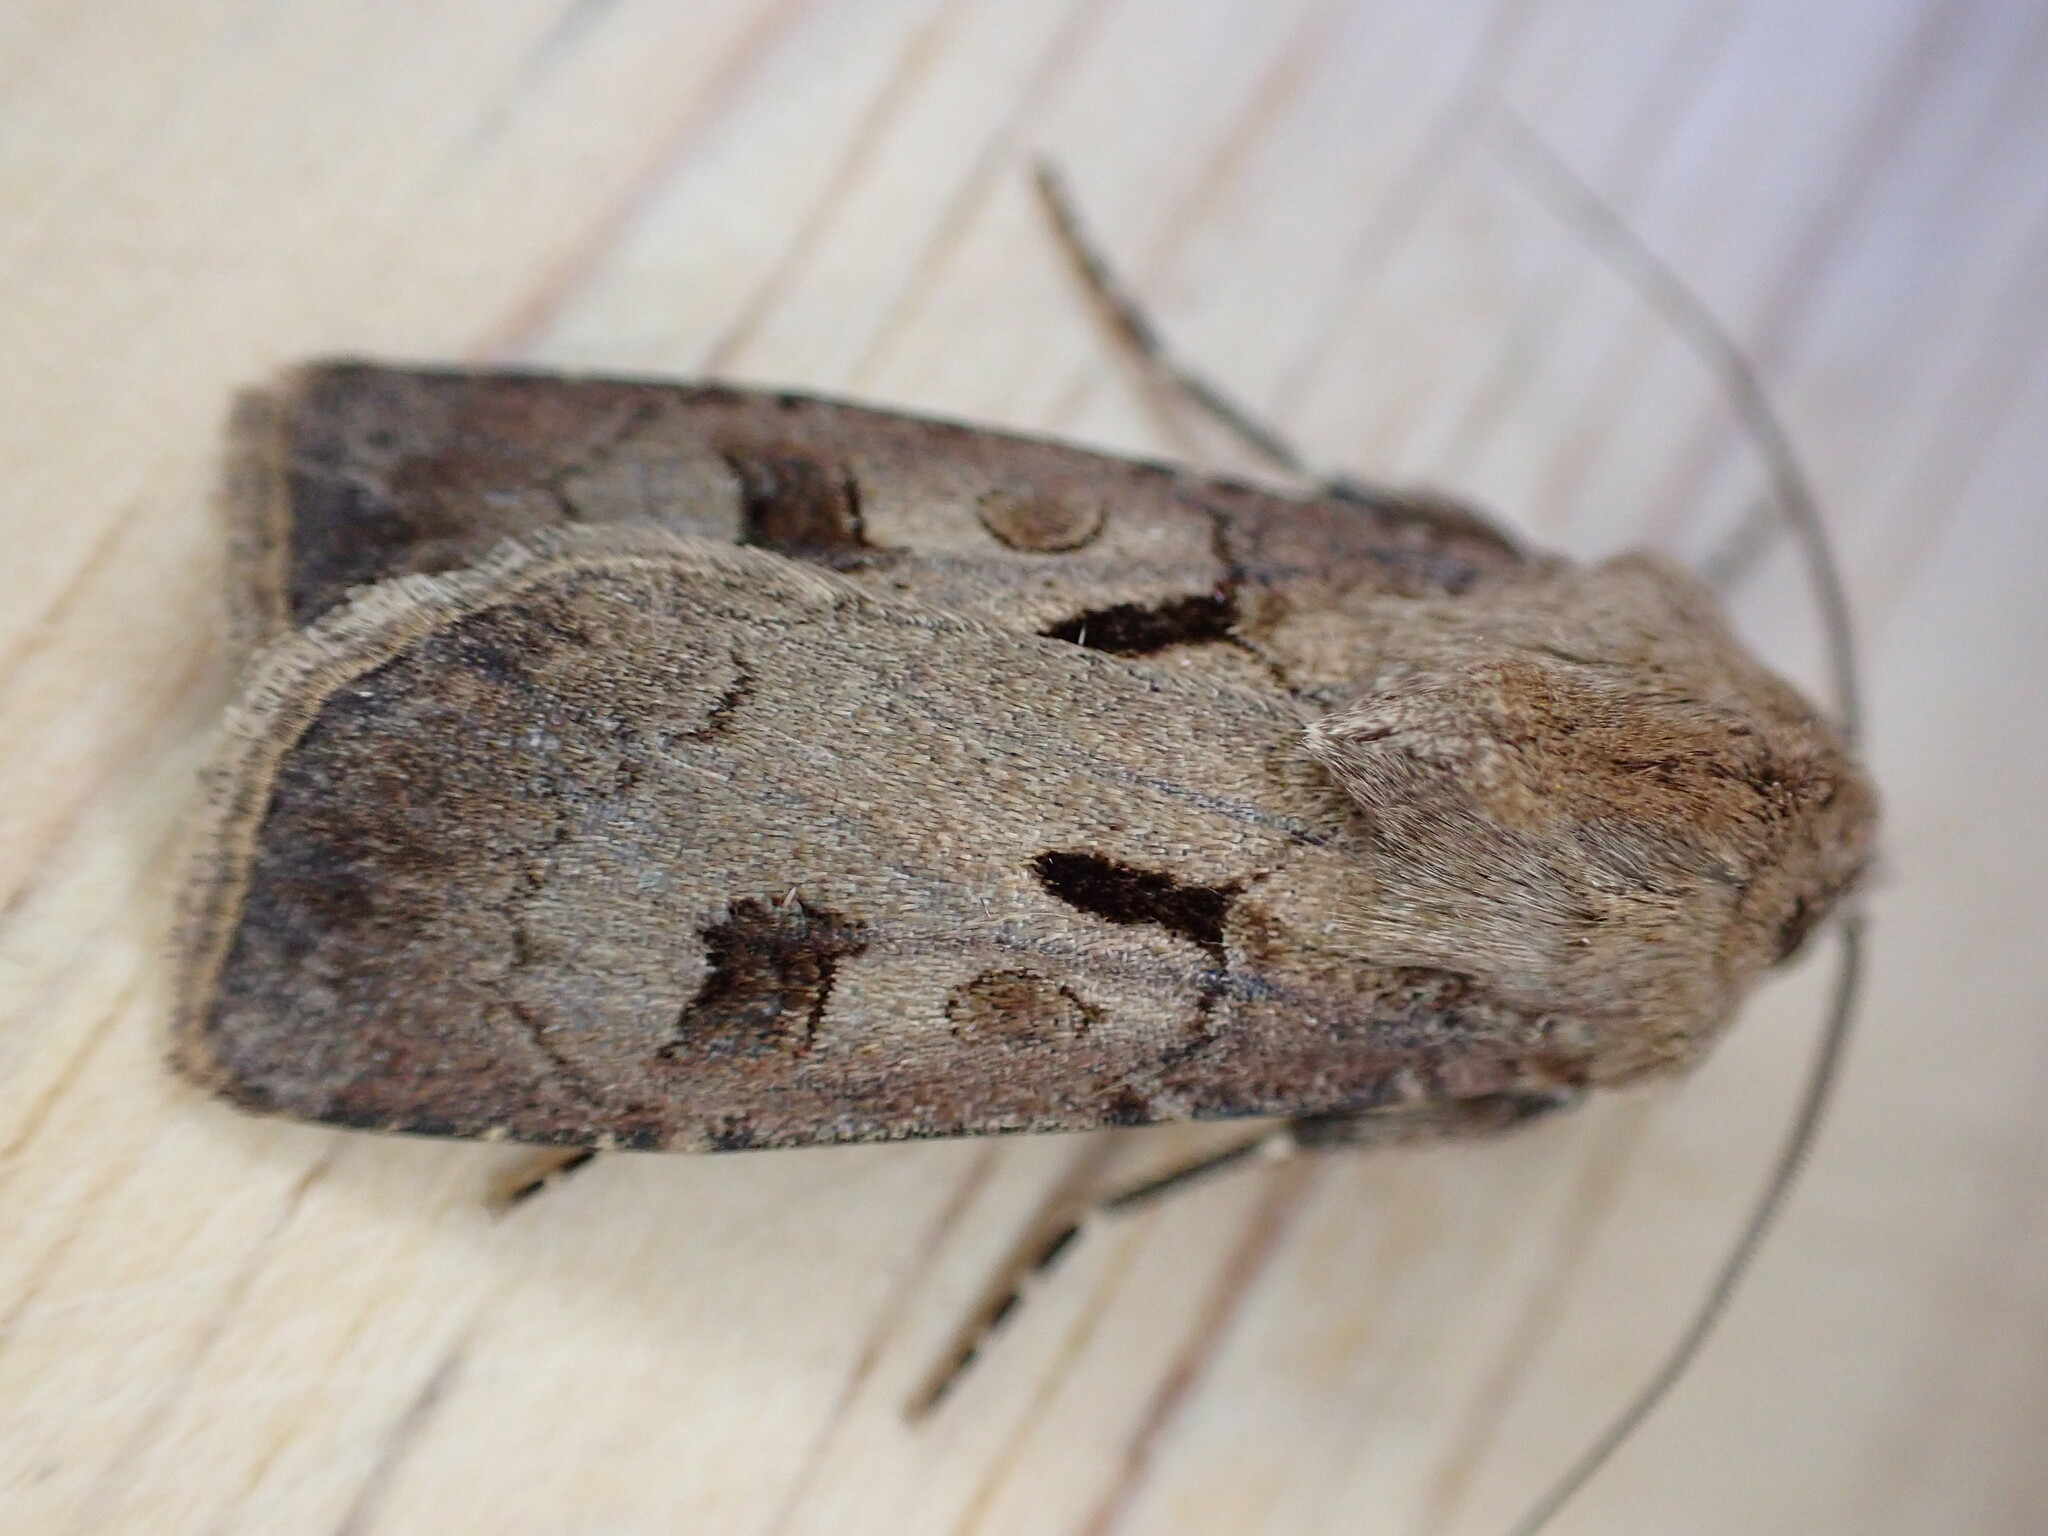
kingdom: Animalia
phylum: Arthropoda
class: Insecta
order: Lepidoptera
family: Noctuidae
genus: Agrotis
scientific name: Agrotis exclamationis
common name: Heart and dart
